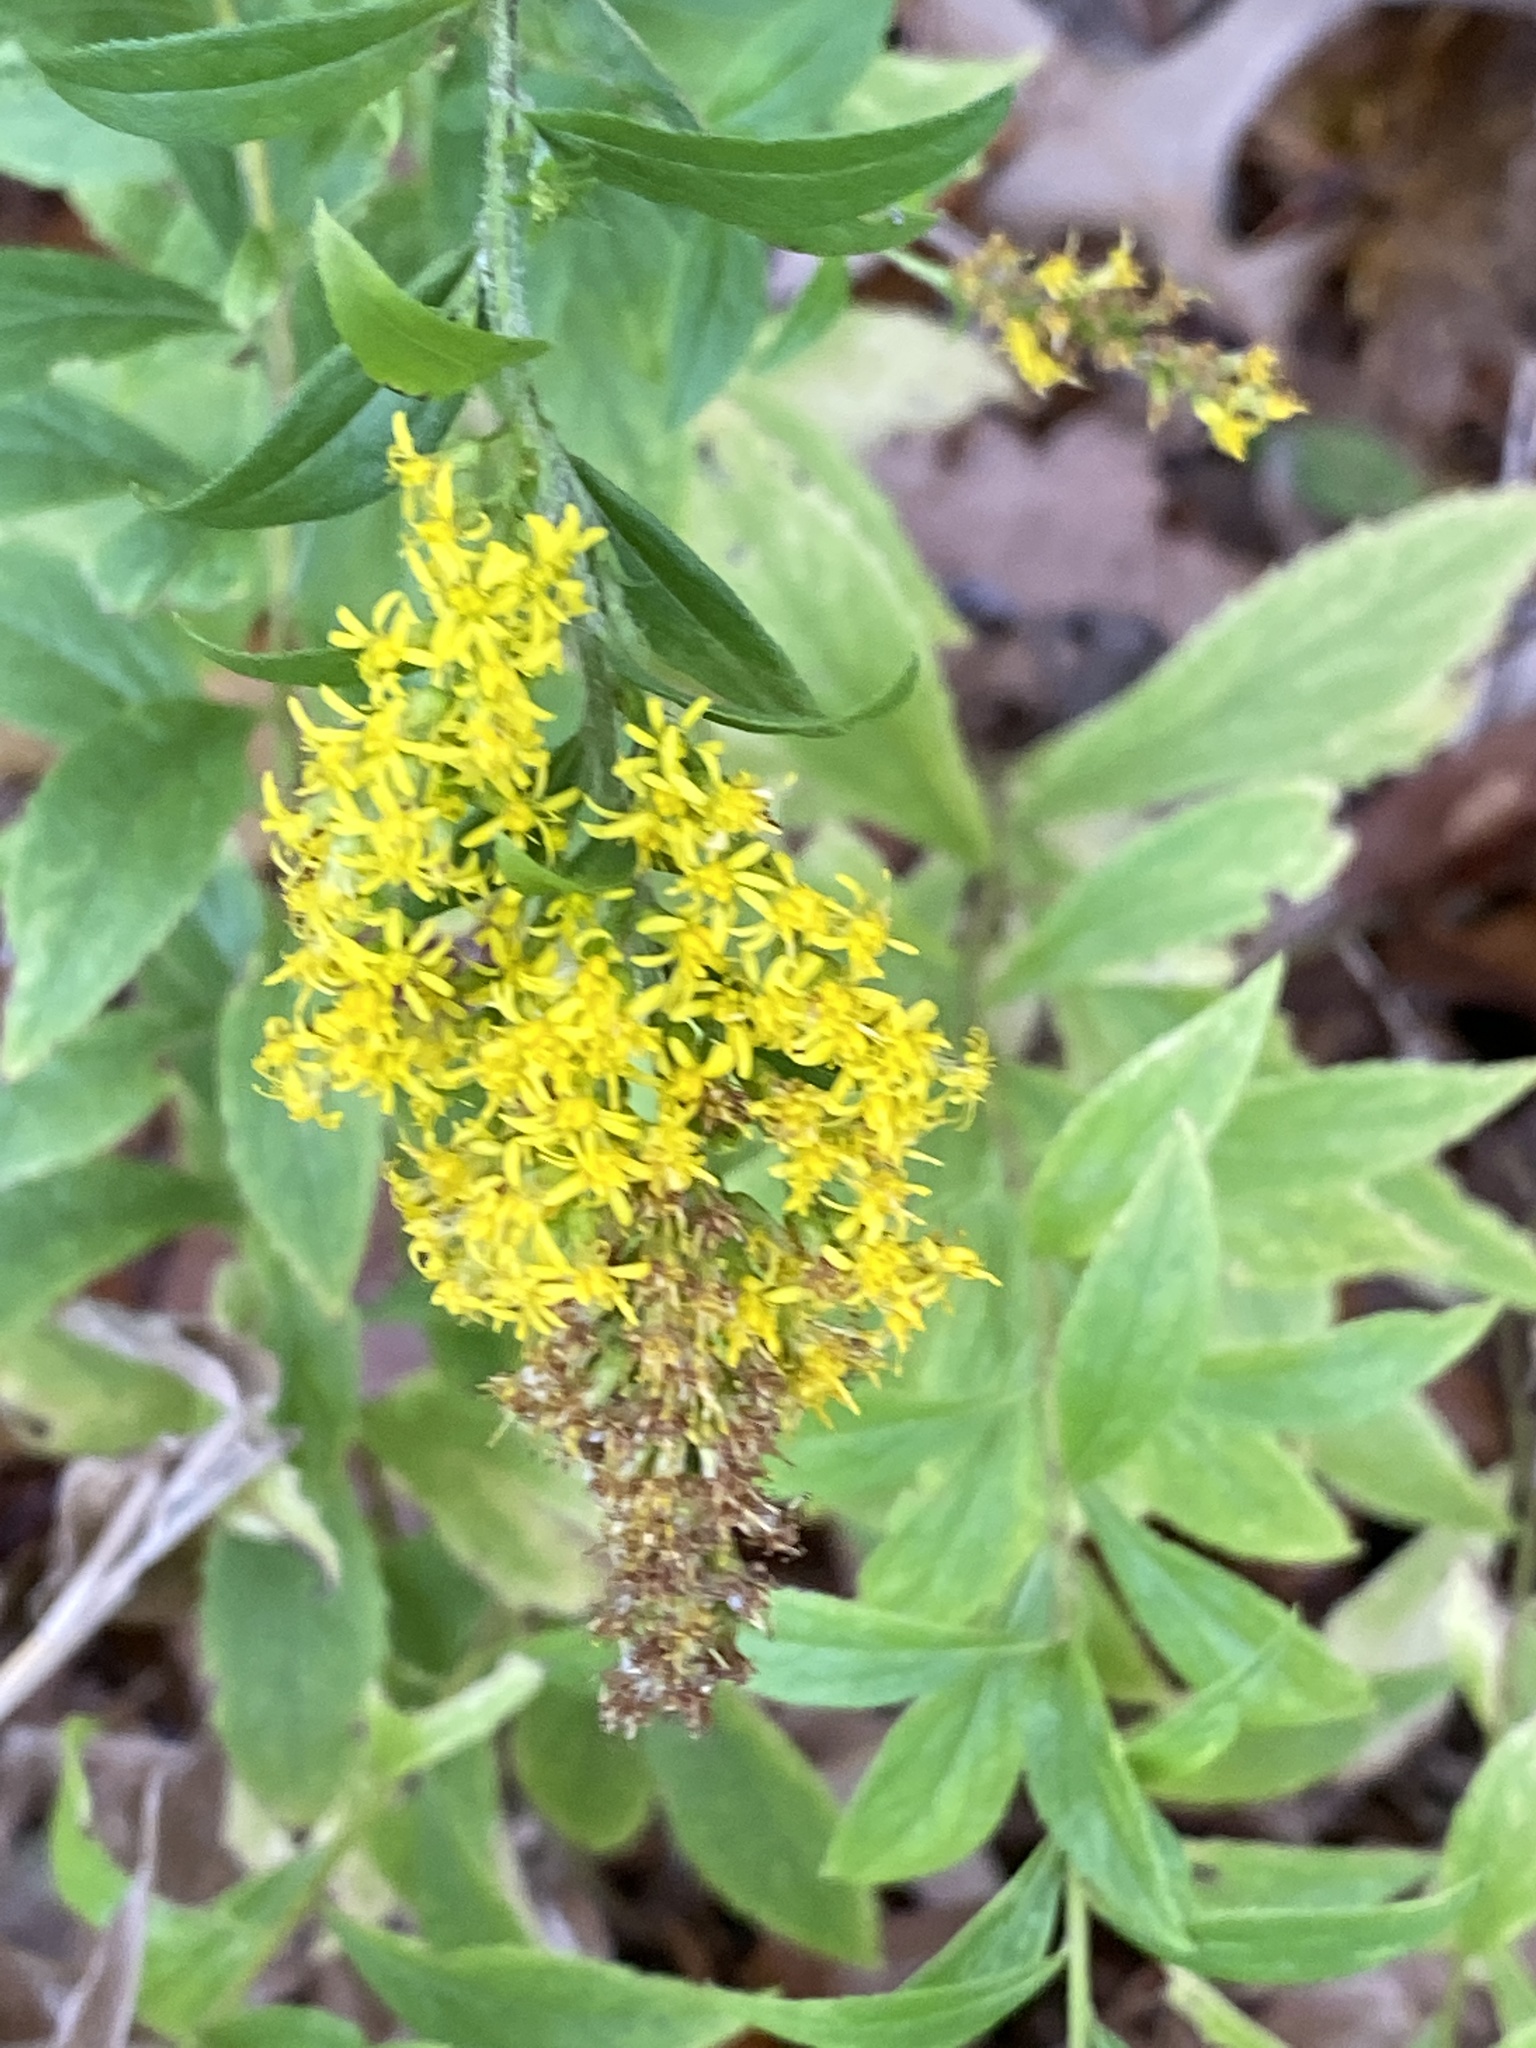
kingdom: Plantae
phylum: Tracheophyta
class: Magnoliopsida
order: Asterales
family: Asteraceae
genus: Solidago
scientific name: Solidago rugosa
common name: Rough-stemmed goldenrod
